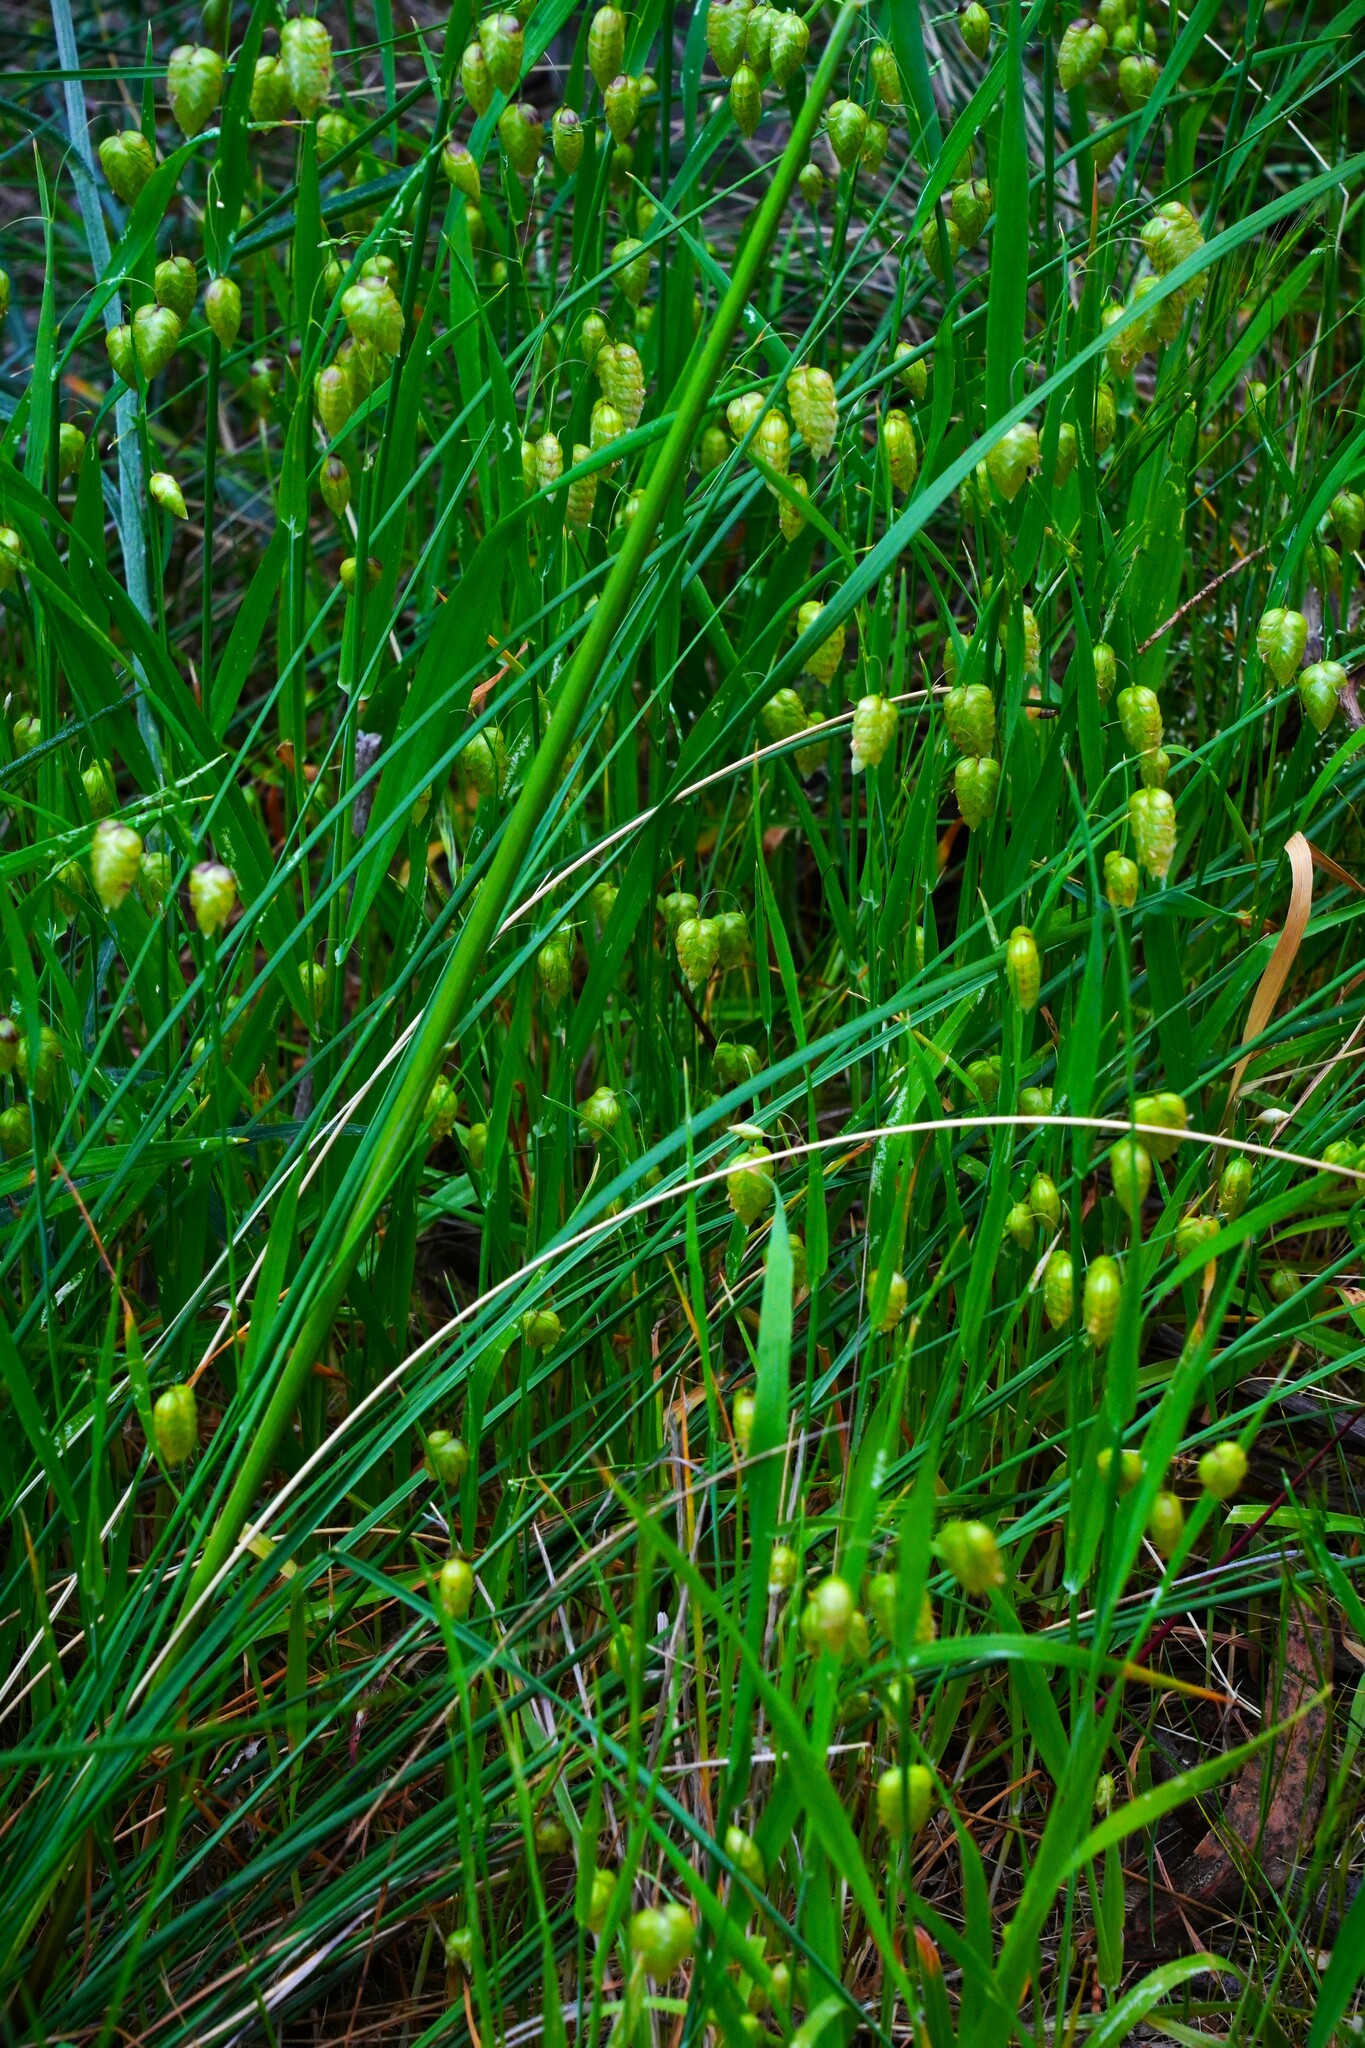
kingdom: Plantae
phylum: Tracheophyta
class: Liliopsida
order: Poales
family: Poaceae
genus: Briza
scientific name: Briza maxima
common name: Big quakinggrass
